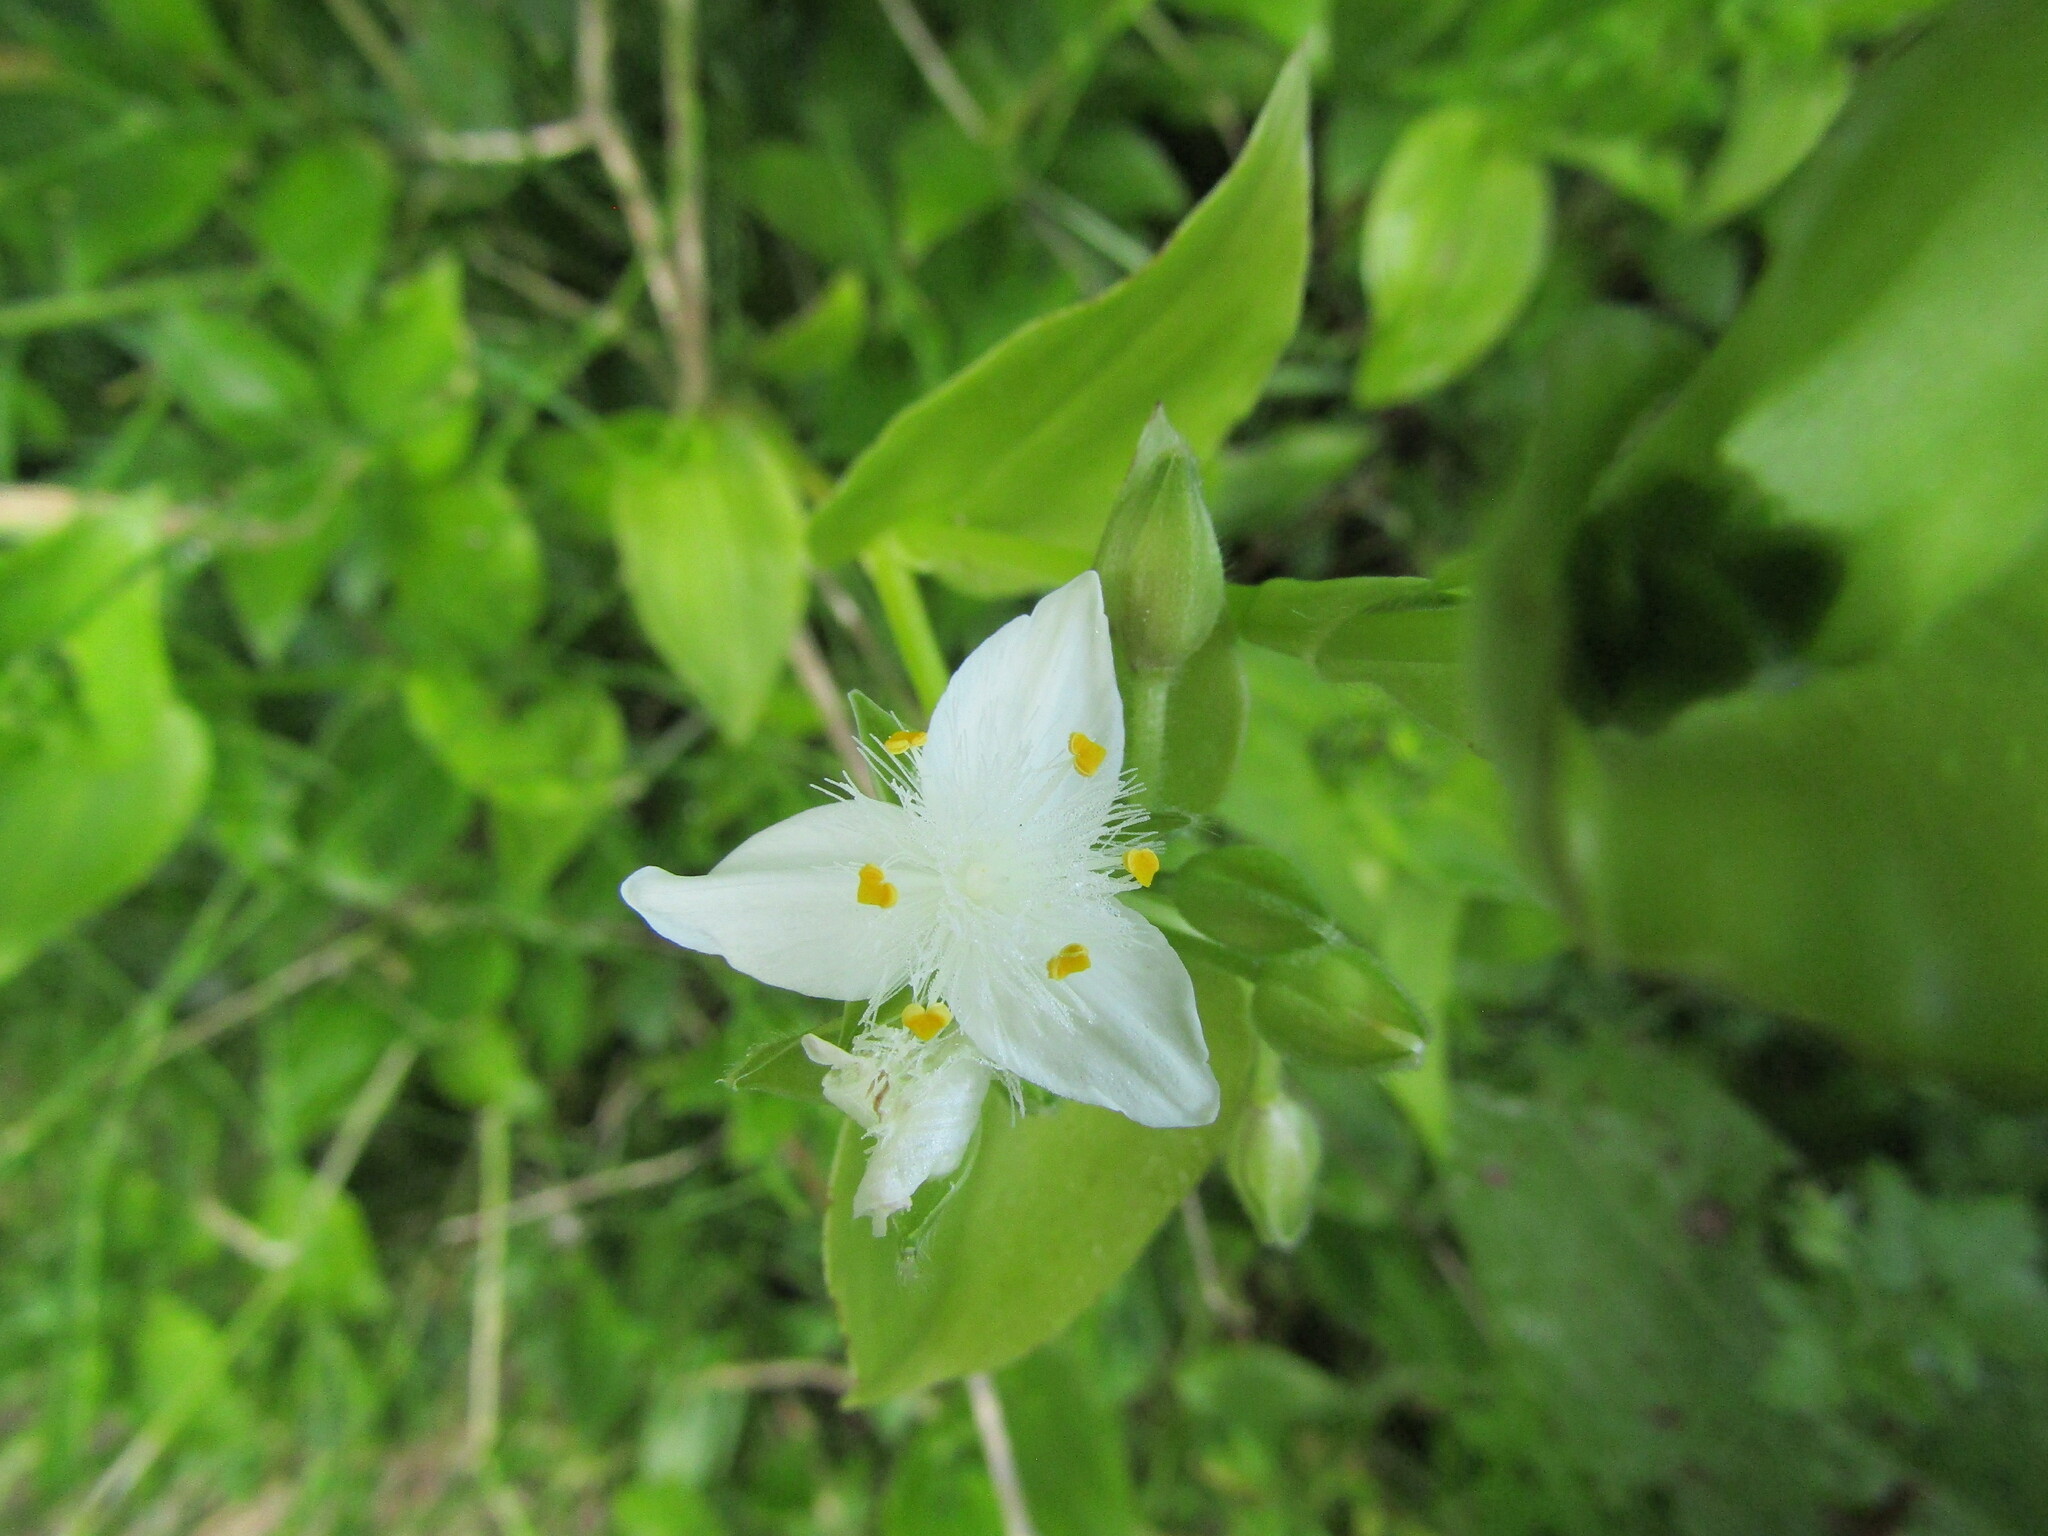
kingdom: Plantae
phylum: Tracheophyta
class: Liliopsida
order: Commelinales
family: Commelinaceae
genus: Tradescantia
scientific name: Tradescantia fluminensis
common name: Wandering-jew
